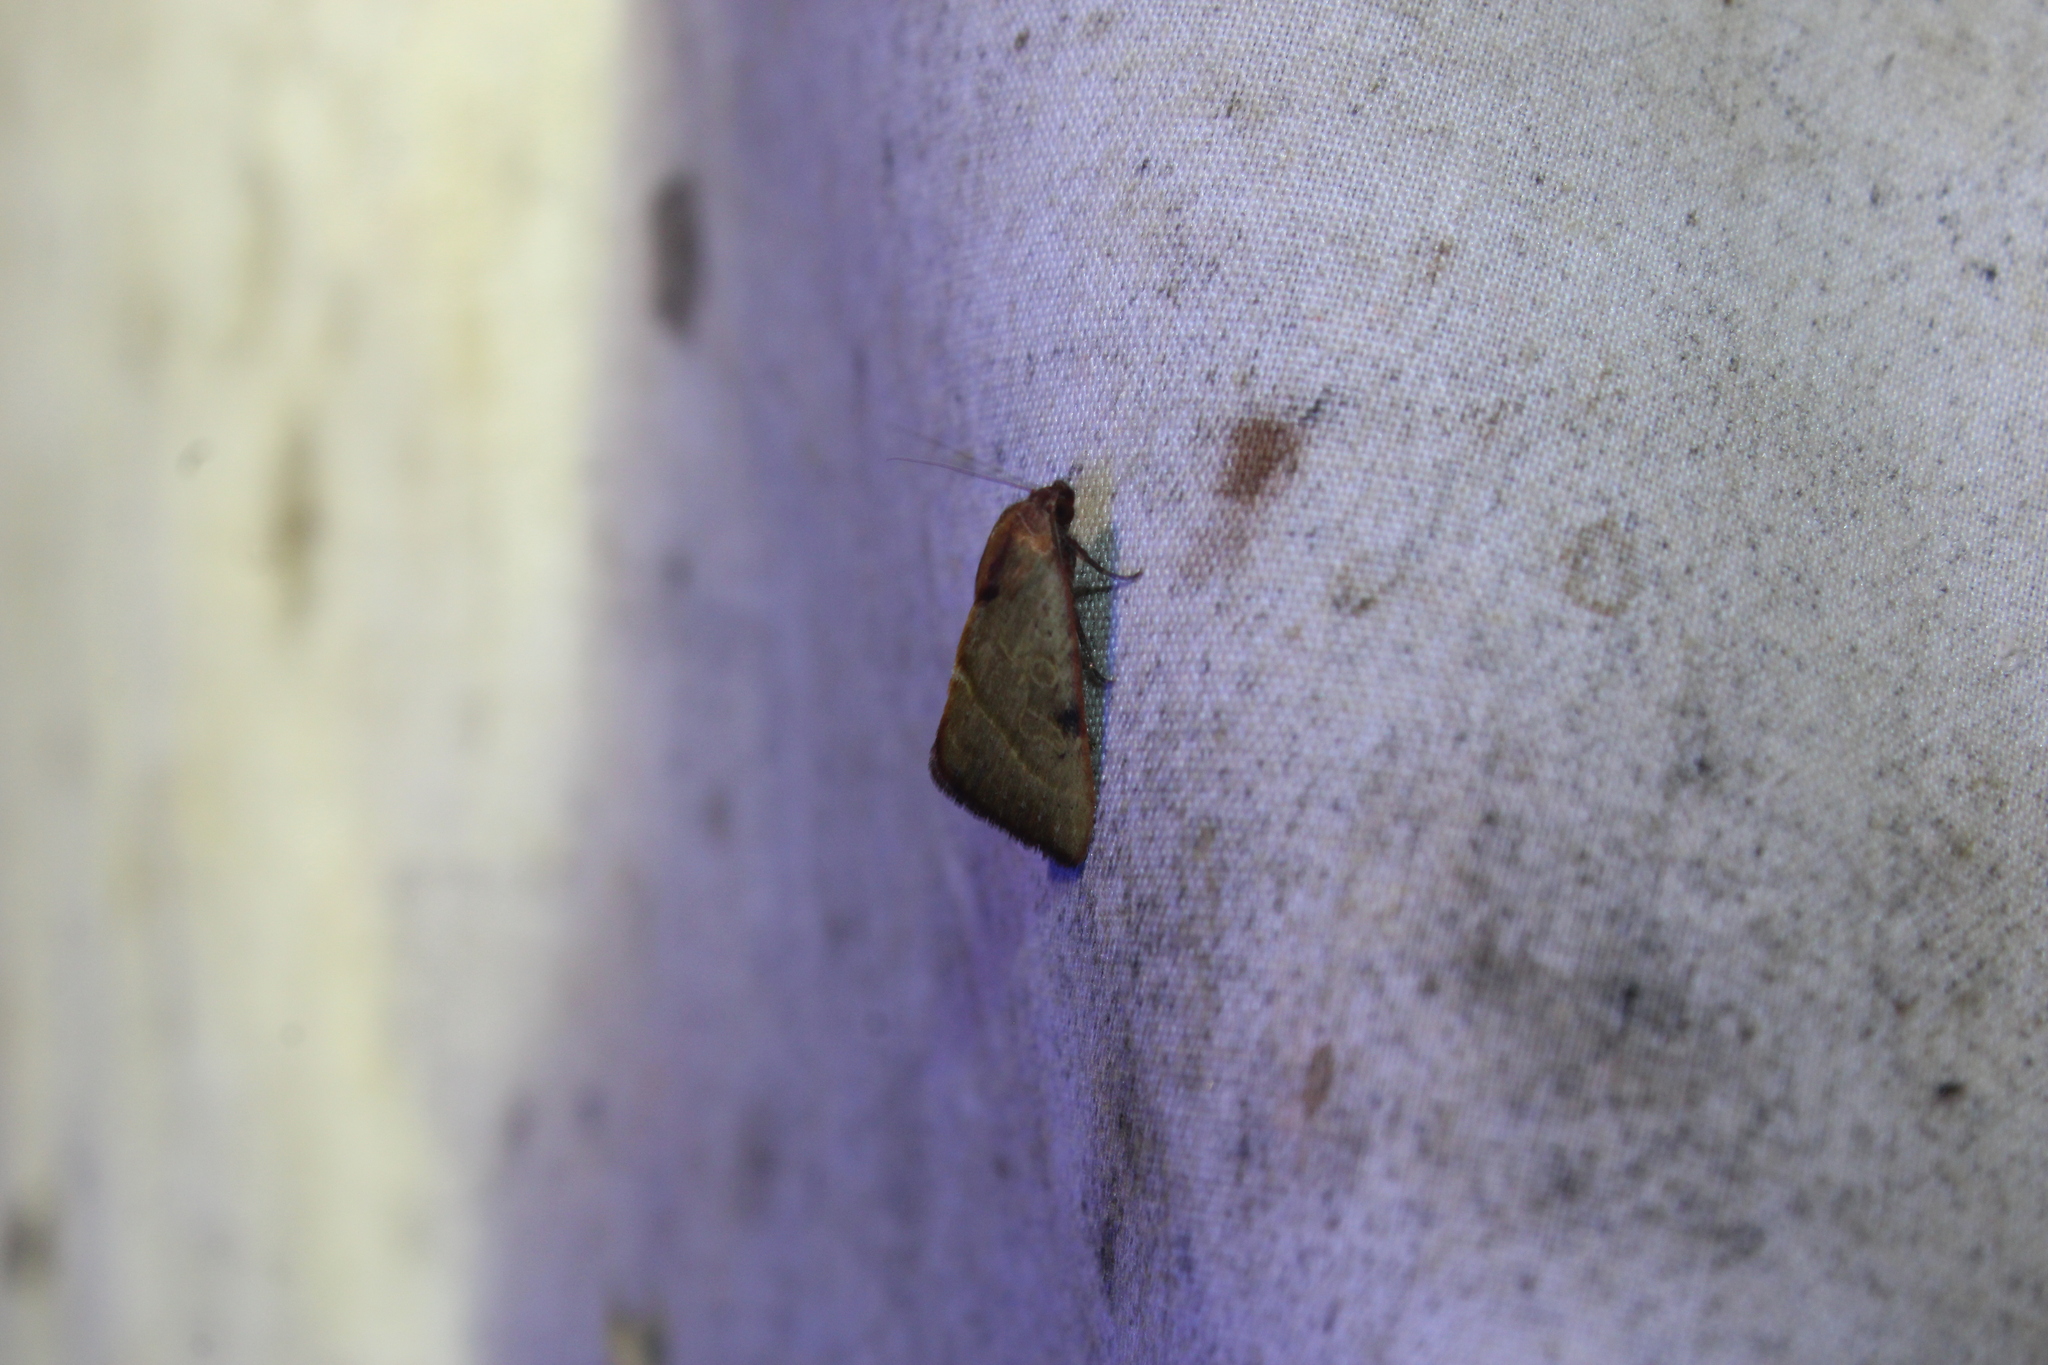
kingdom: Animalia
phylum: Arthropoda
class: Insecta
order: Lepidoptera
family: Noctuidae
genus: Galgula
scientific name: Galgula partita
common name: Wedgeling
